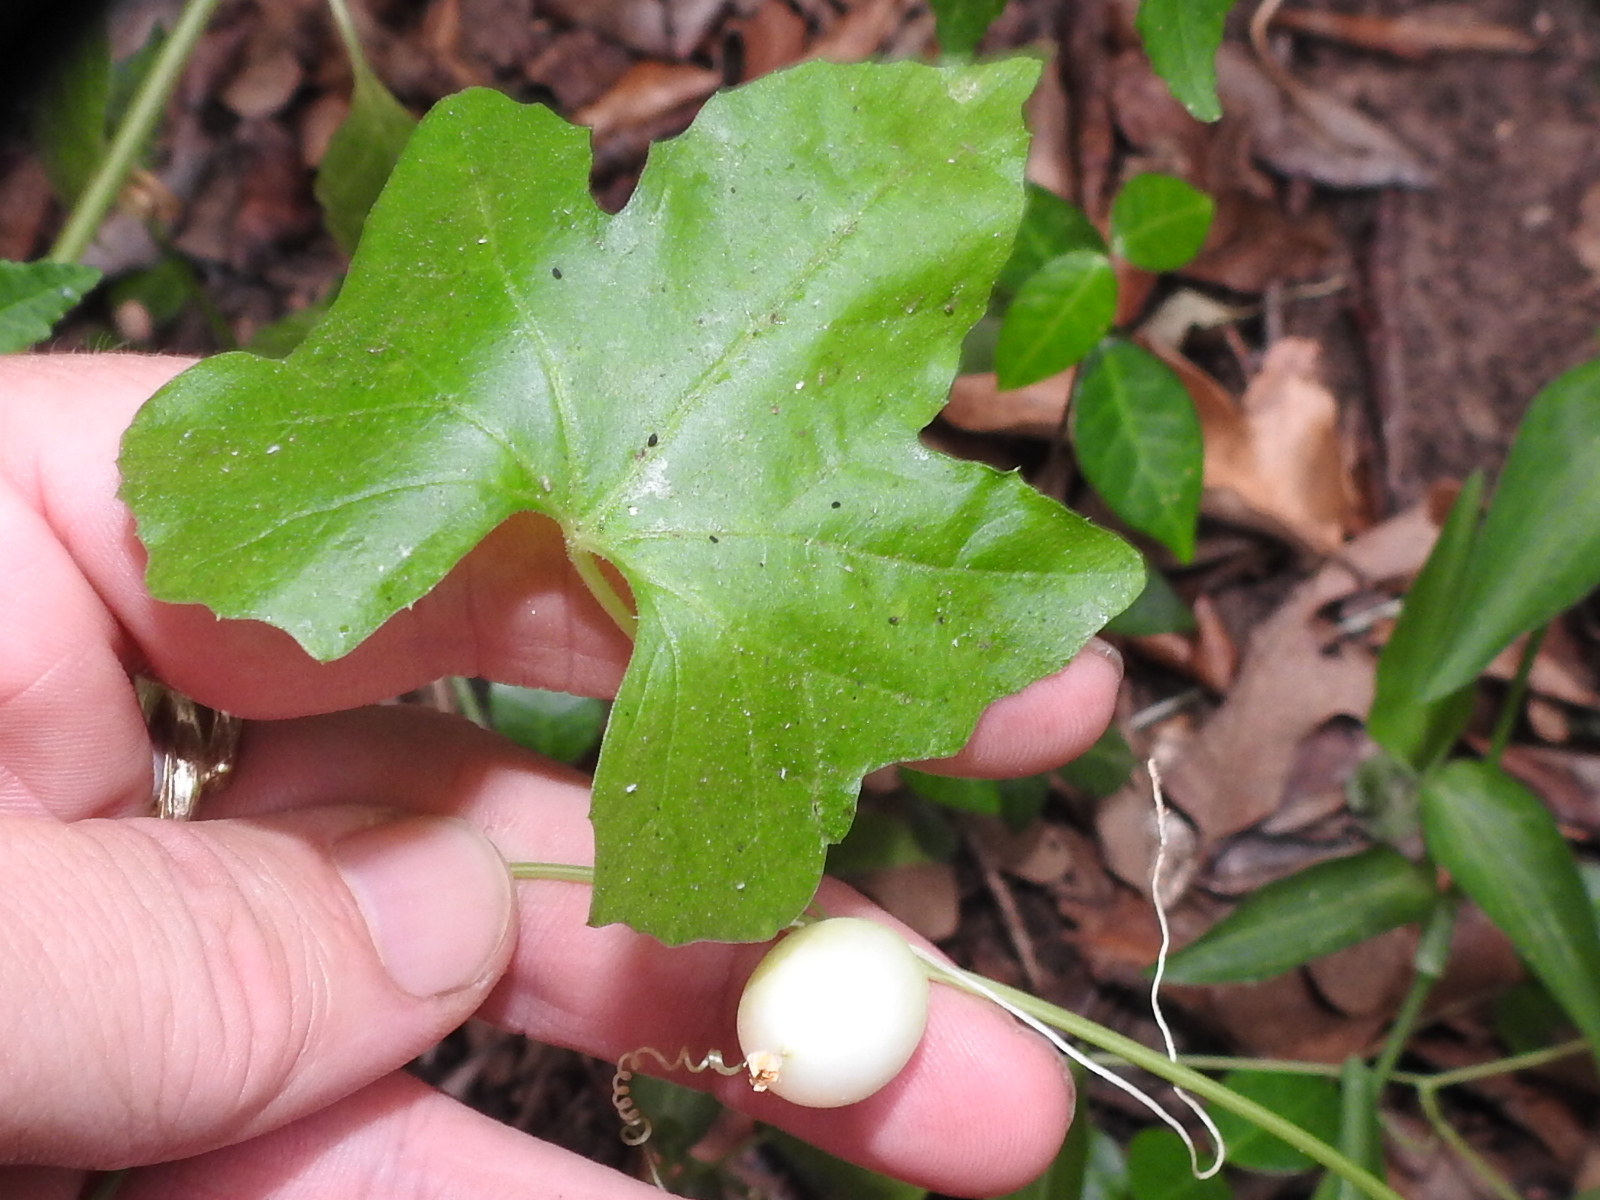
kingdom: Plantae
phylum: Tracheophyta
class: Magnoliopsida
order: Cucurbitales
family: Cucurbitaceae
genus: Melothria
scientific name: Melothria pendula
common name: Creeping-cucumber
